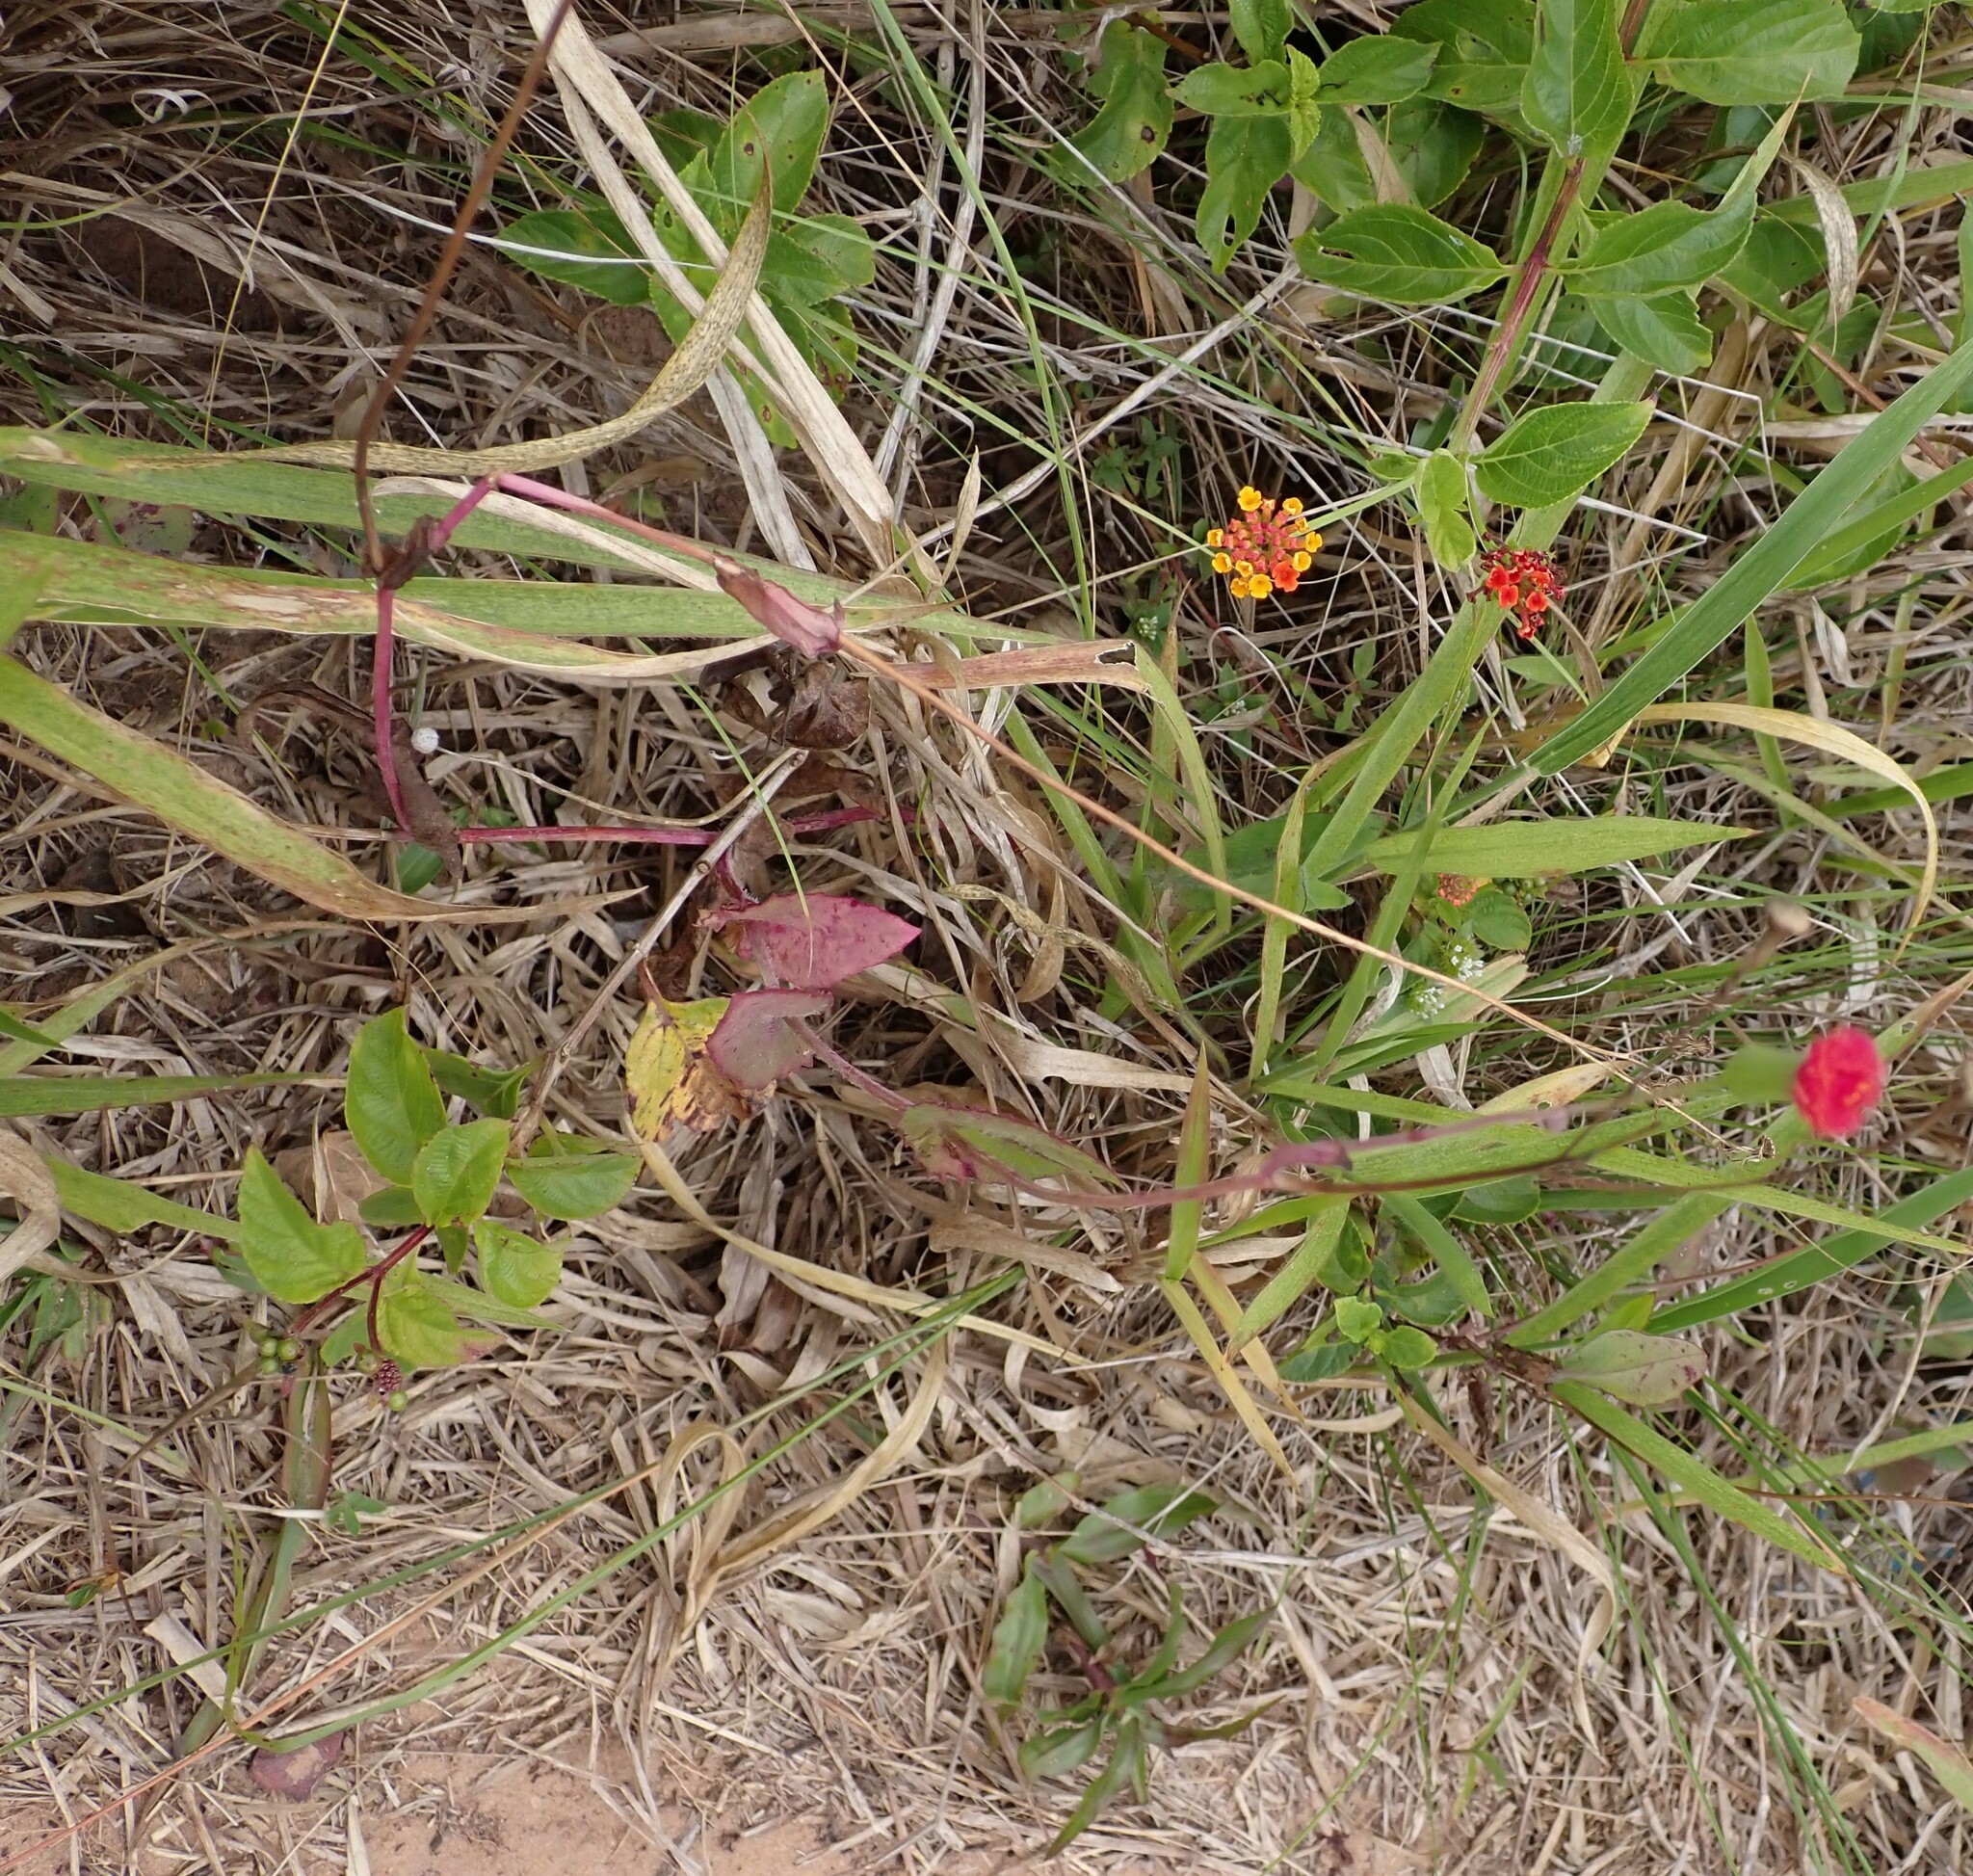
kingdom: Plantae
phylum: Tracheophyta
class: Magnoliopsida
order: Asterales
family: Asteraceae
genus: Emilia
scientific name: Emilia fosbergii
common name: Florida tasselflower
